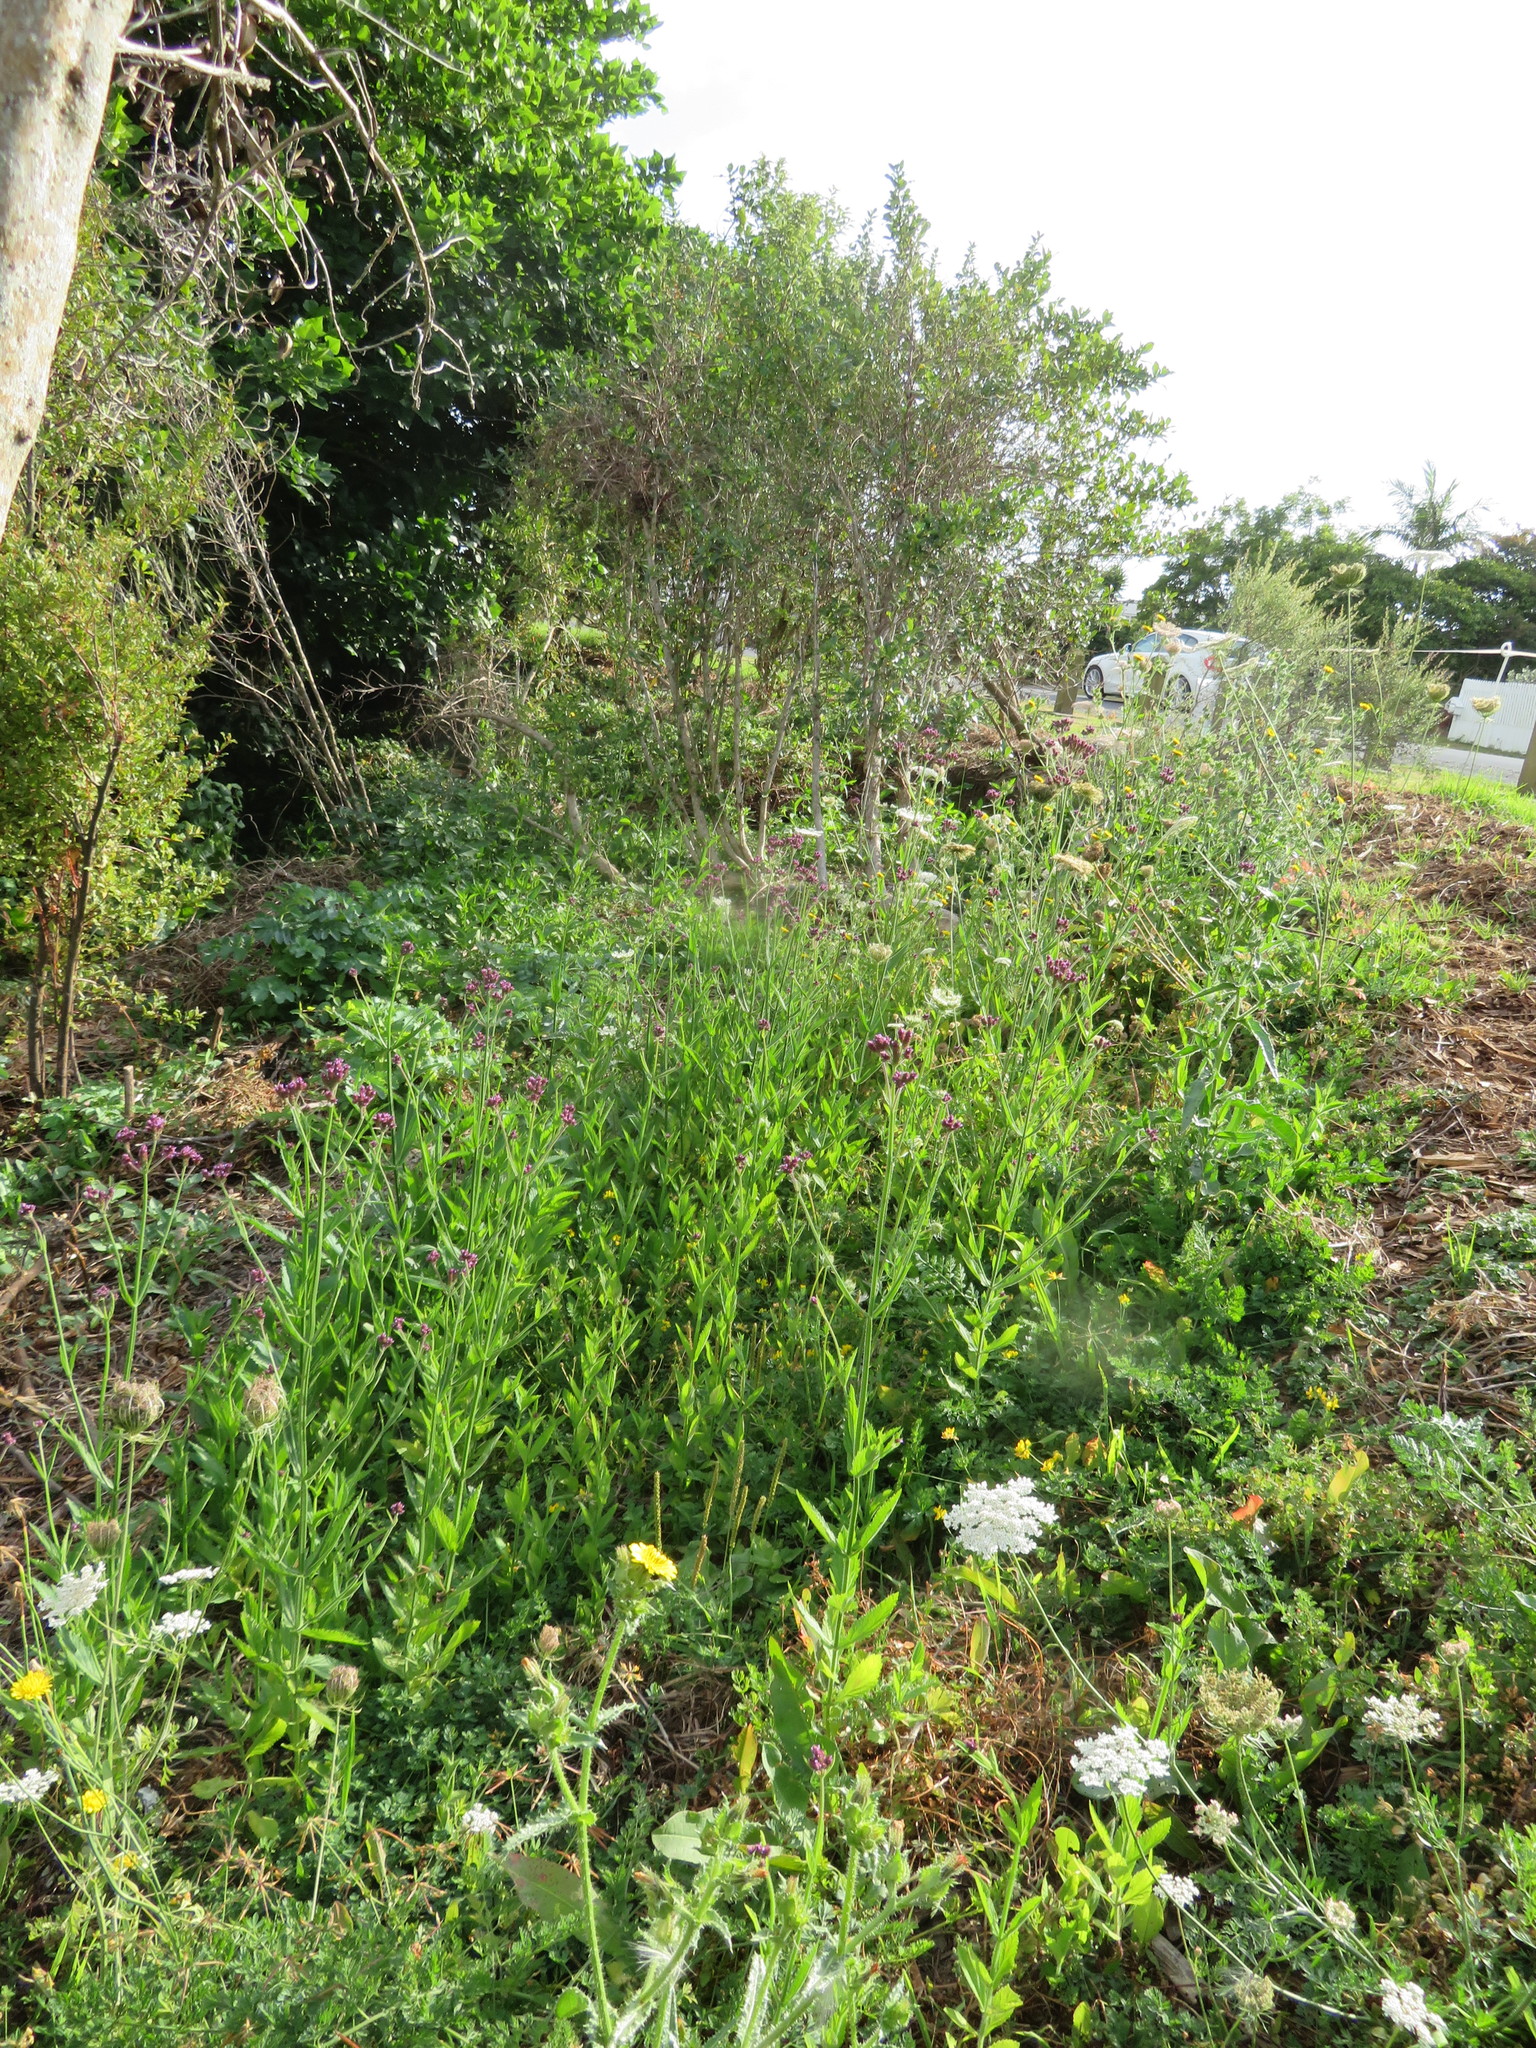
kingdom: Plantae
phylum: Tracheophyta
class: Magnoliopsida
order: Lamiales
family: Verbenaceae
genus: Verbena
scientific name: Verbena incompta
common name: Purpletop vervain
